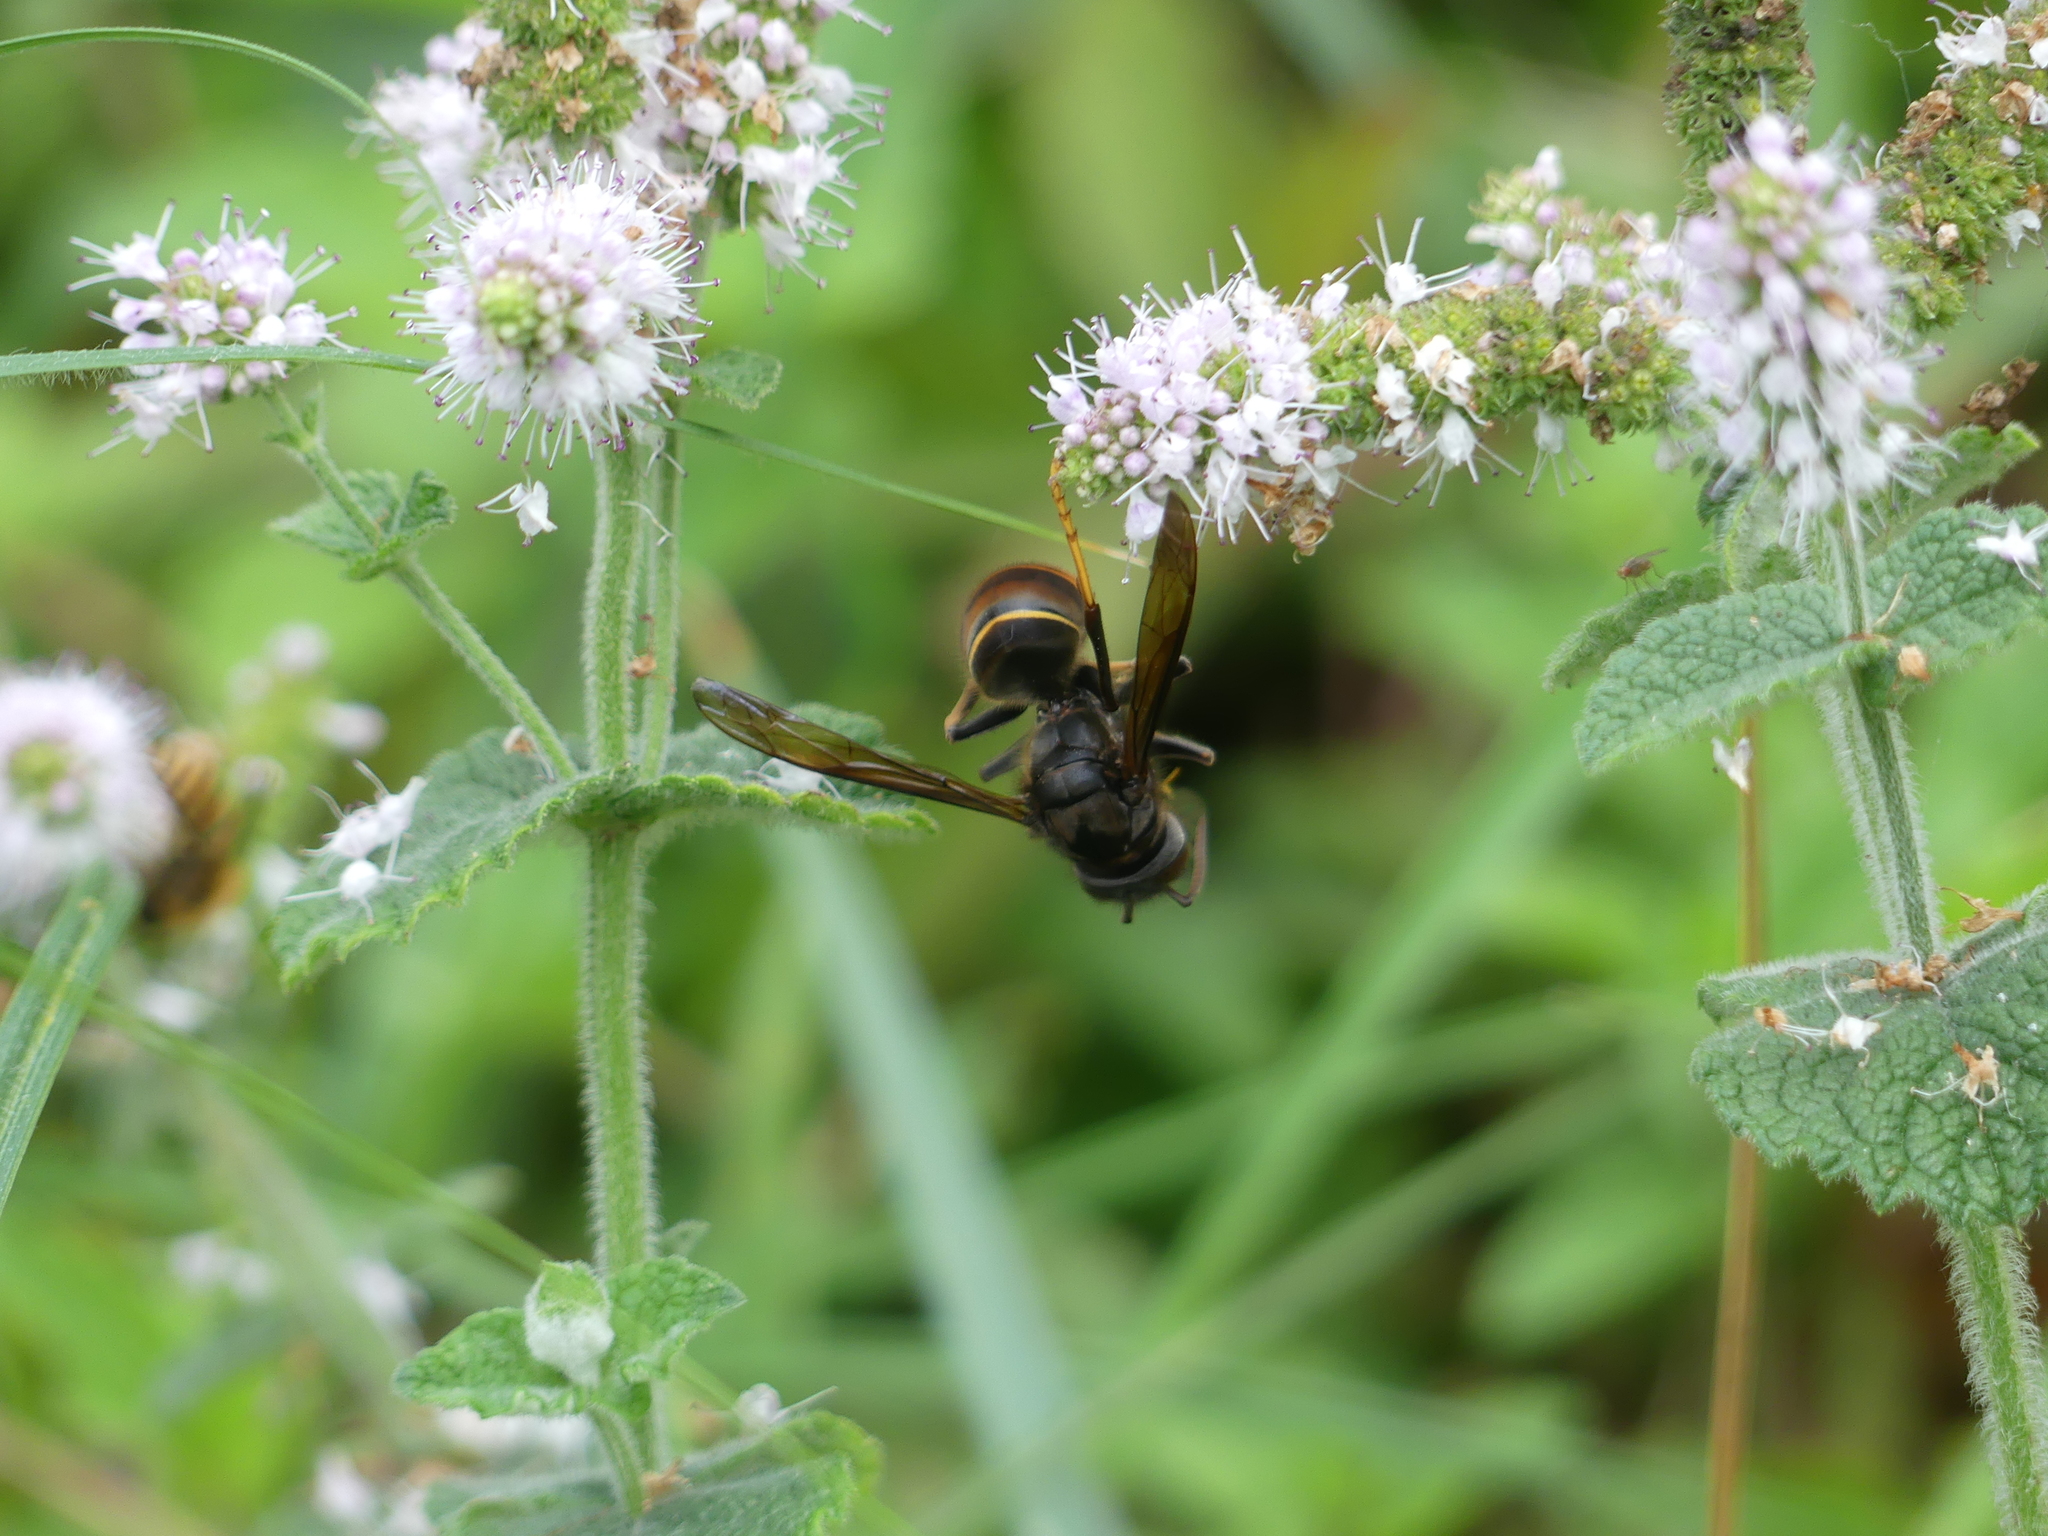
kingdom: Animalia
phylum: Arthropoda
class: Insecta
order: Hymenoptera
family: Vespidae
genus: Vespa
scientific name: Vespa velutina
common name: Asian hornet
